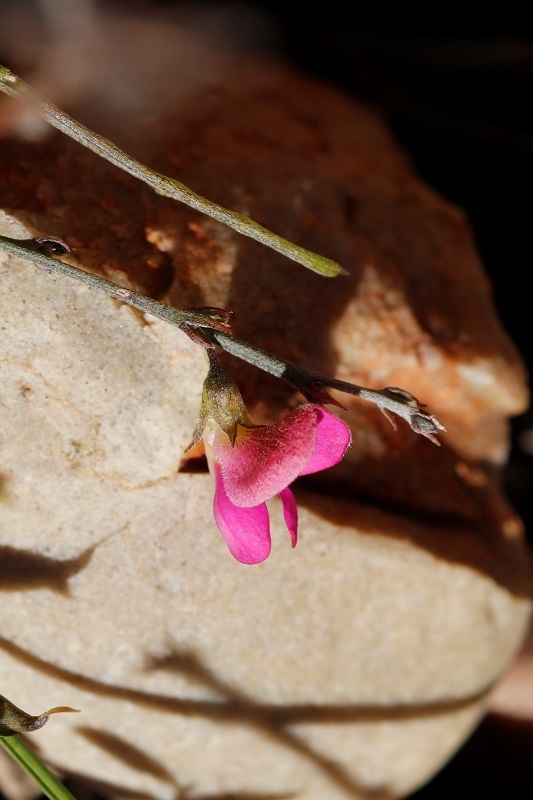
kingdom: Plantae
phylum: Tracheophyta
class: Magnoliopsida
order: Fabales
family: Fabaceae
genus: Tephrosia
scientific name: Tephrosia capensis
